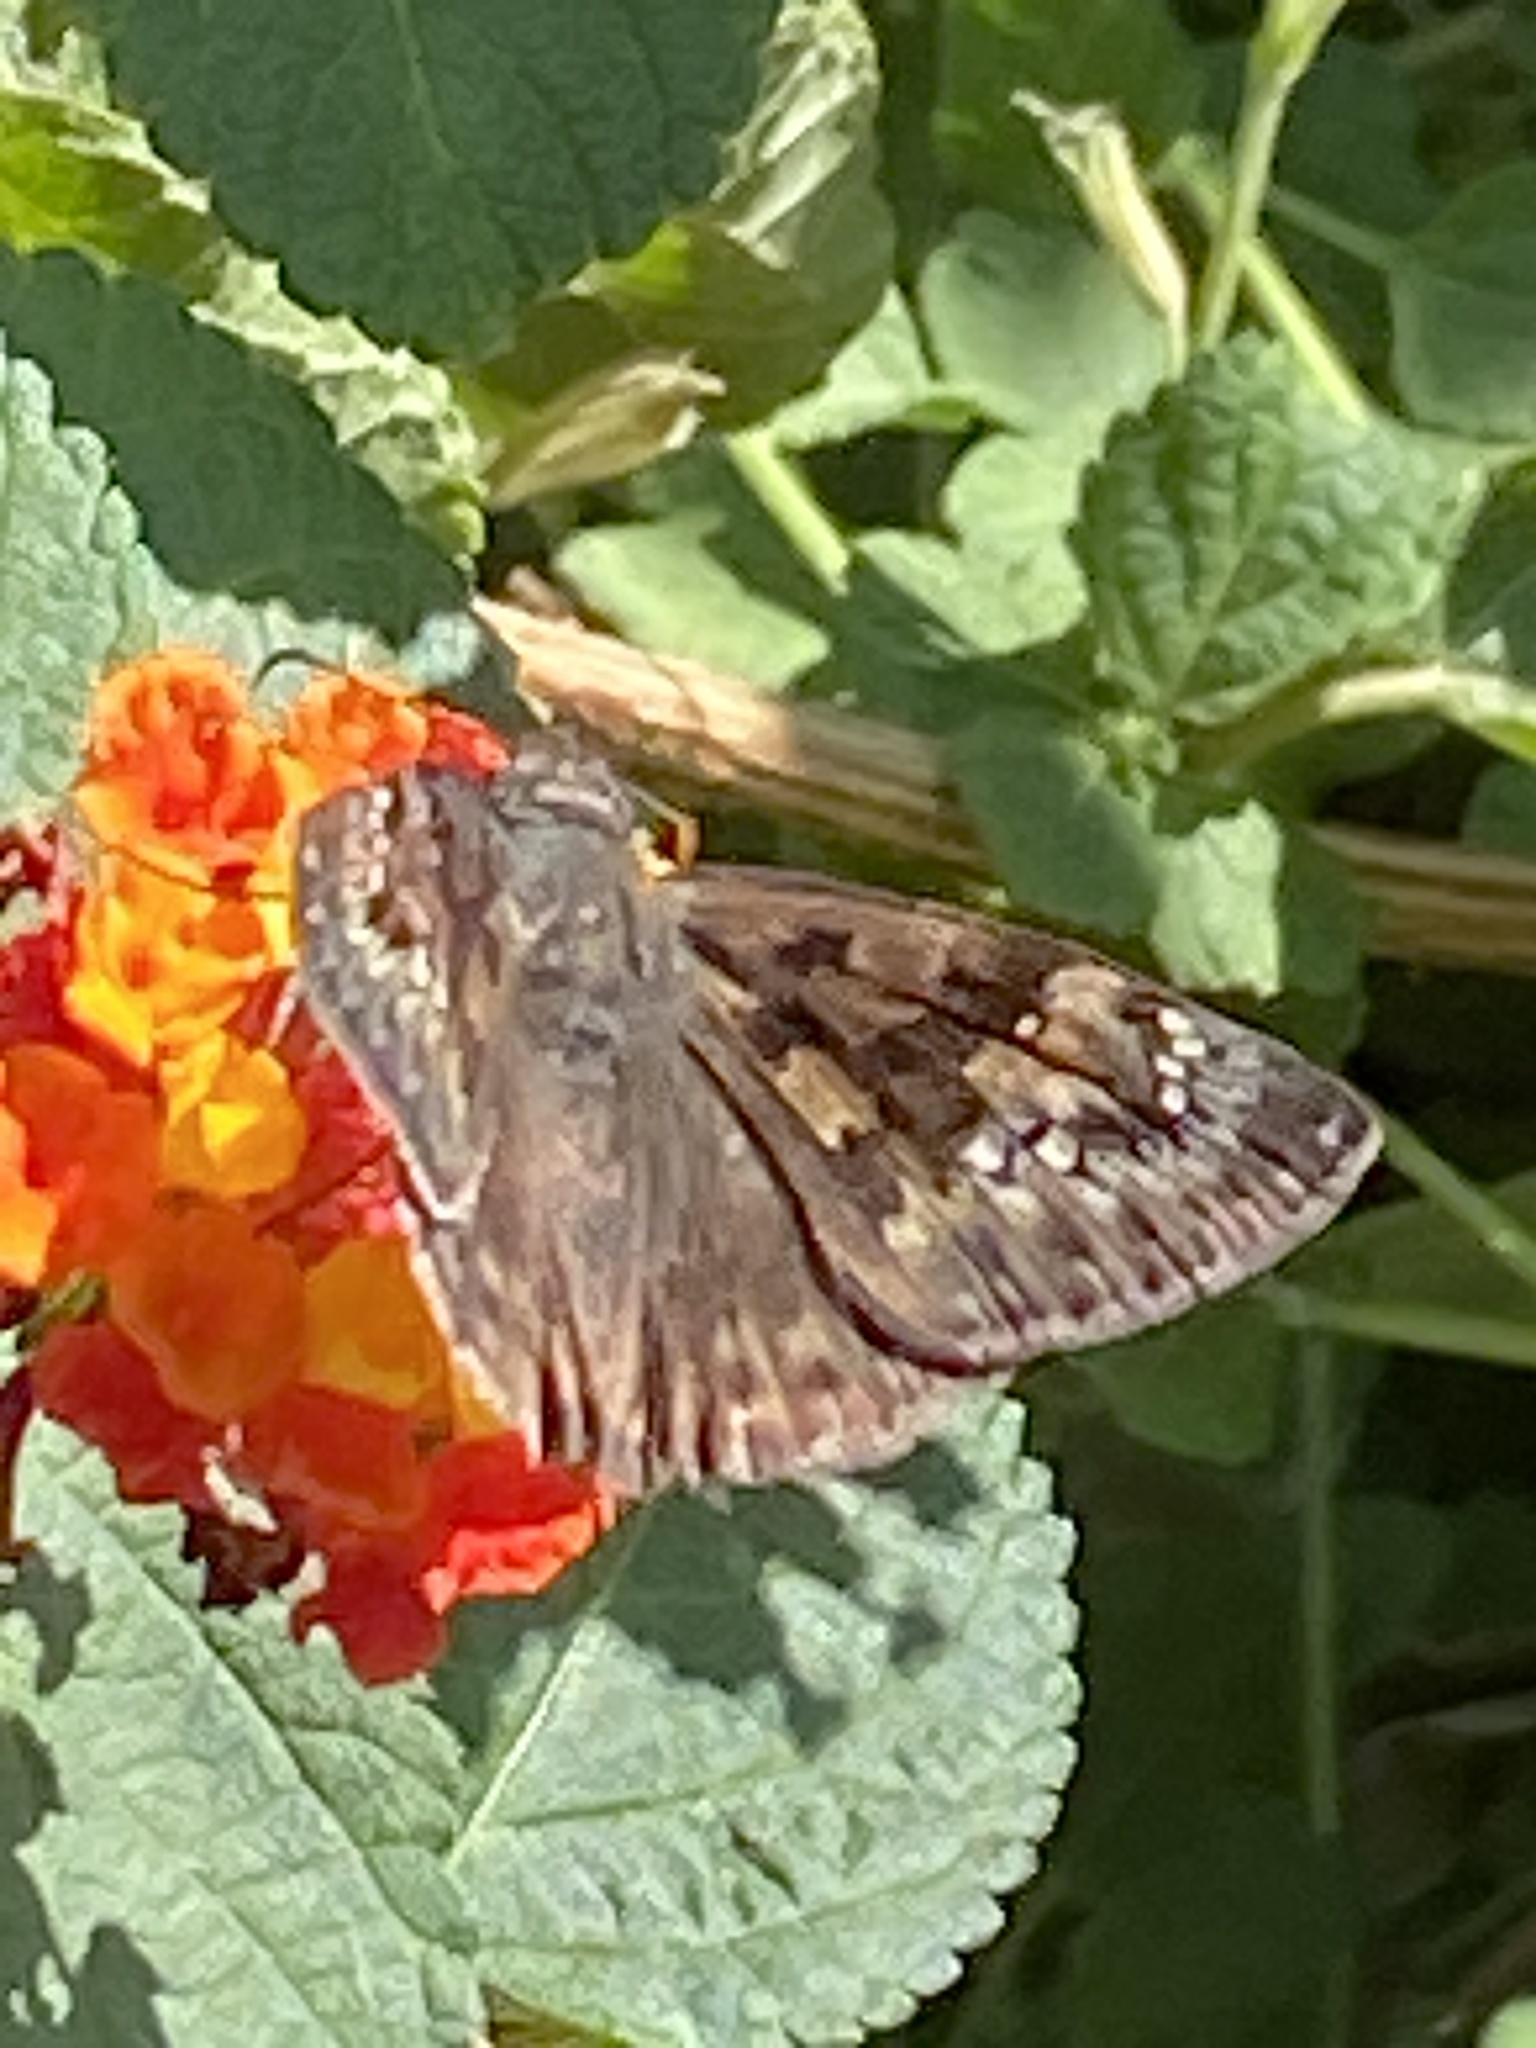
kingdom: Animalia
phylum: Arthropoda
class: Insecta
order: Lepidoptera
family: Hesperiidae
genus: Erynnis
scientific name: Erynnis horatius
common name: Horace's duskywing
